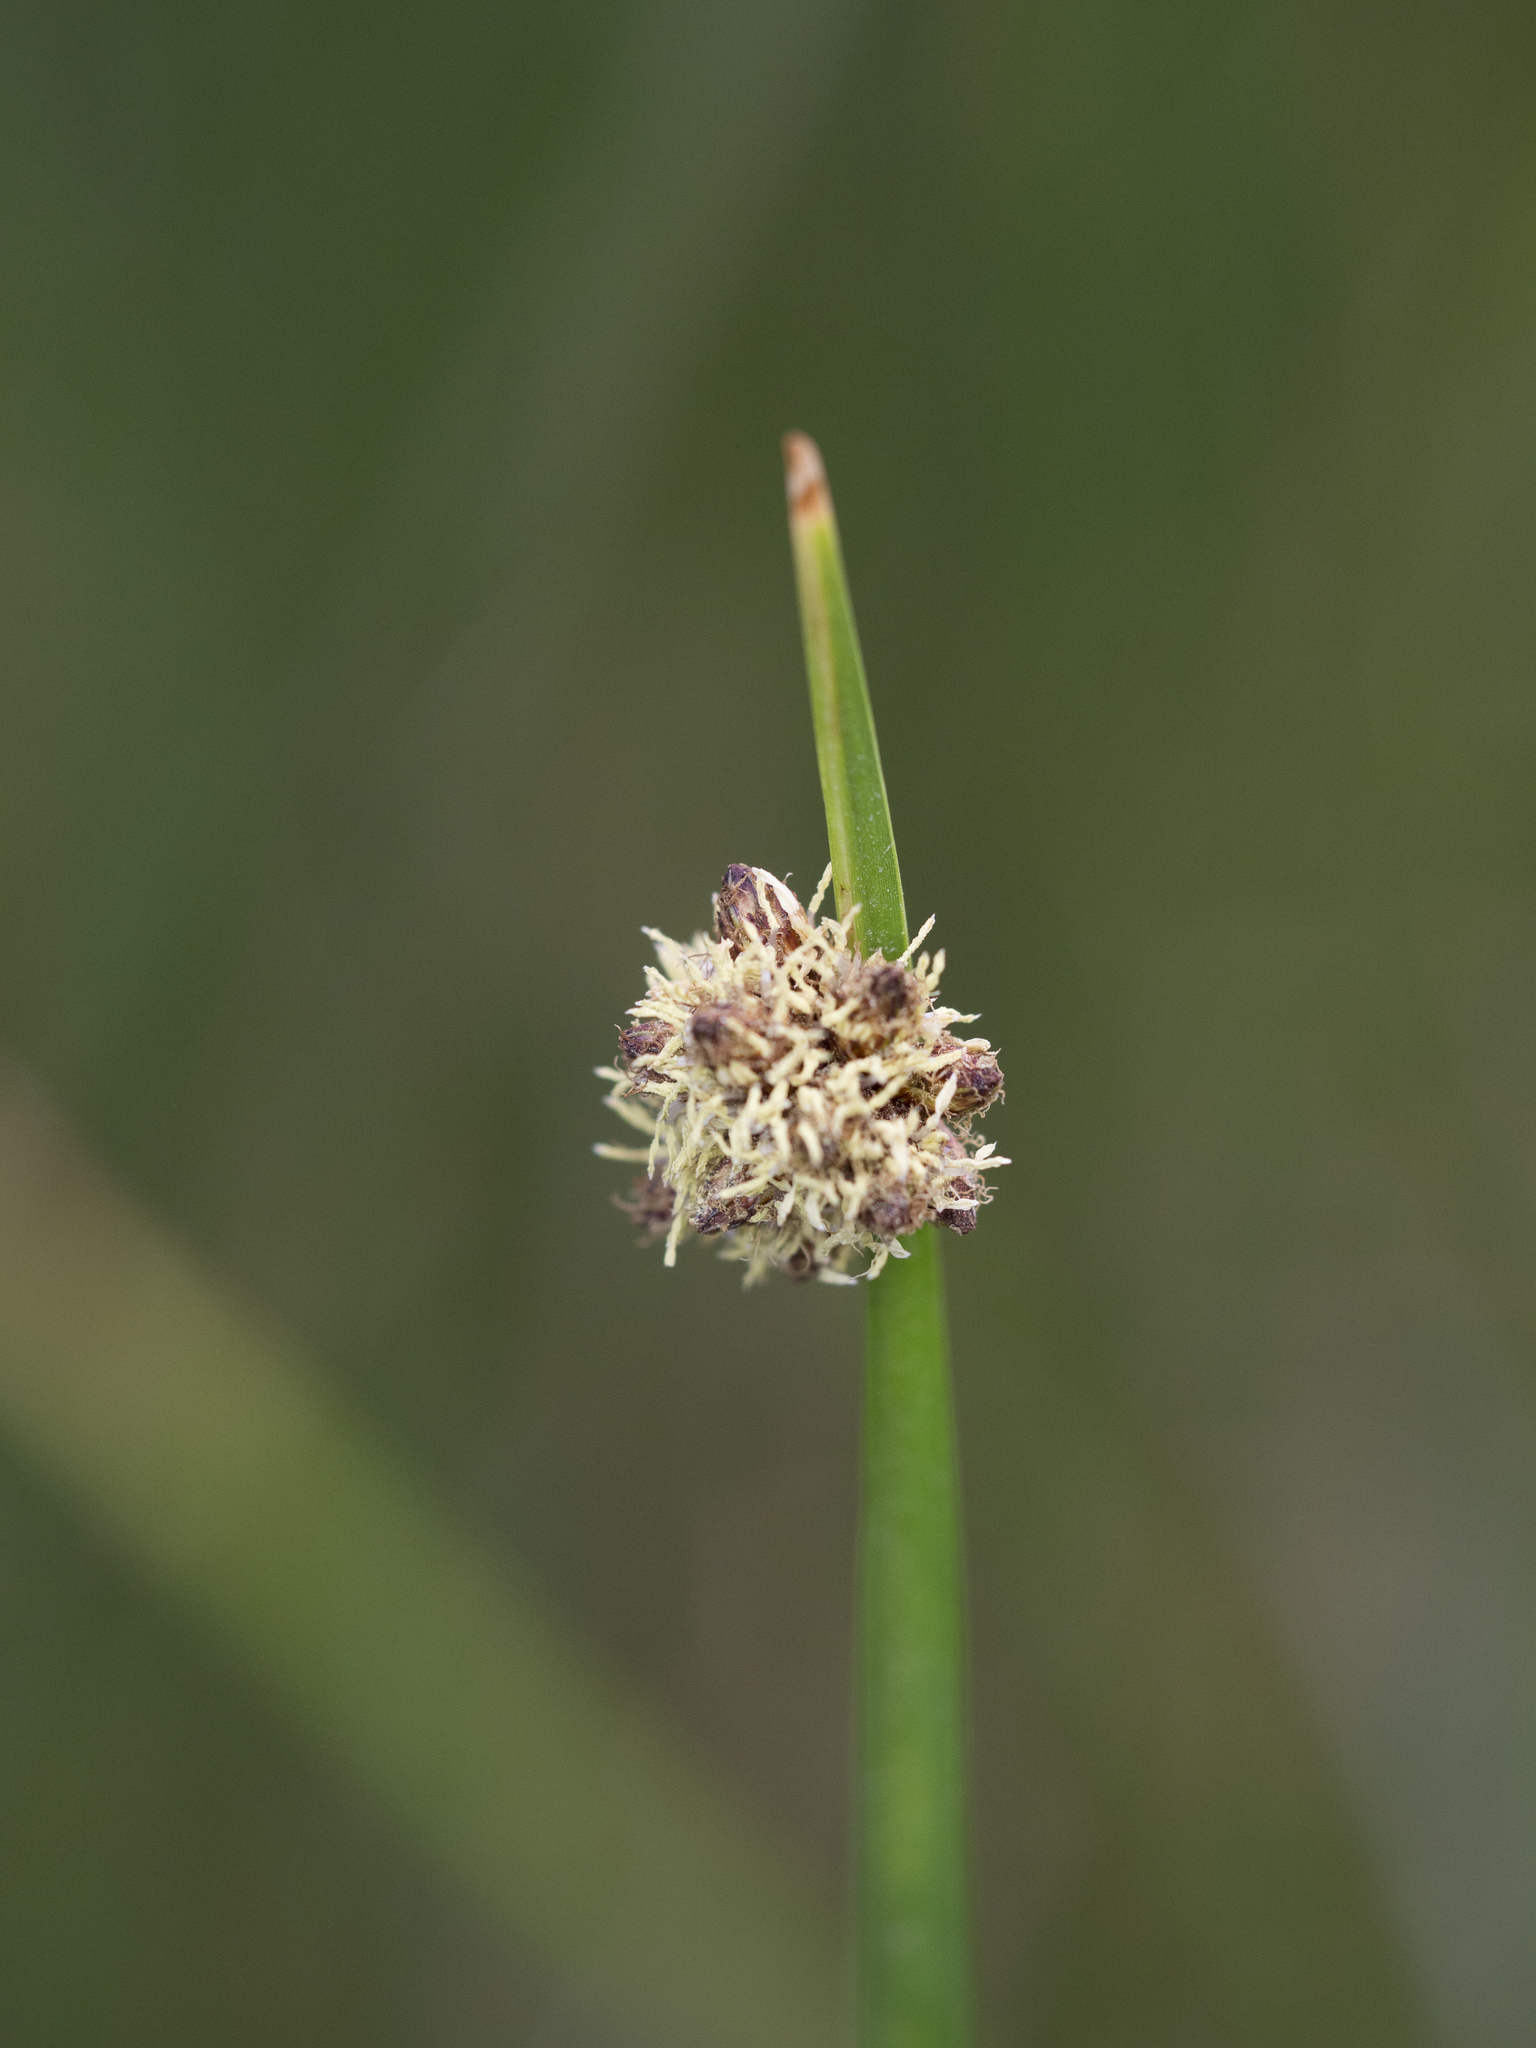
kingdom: Plantae
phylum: Tracheophyta
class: Liliopsida
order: Poales
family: Cyperaceae
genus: Schoenoplectus
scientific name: Schoenoplectus americanus
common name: American three-square bulrush
